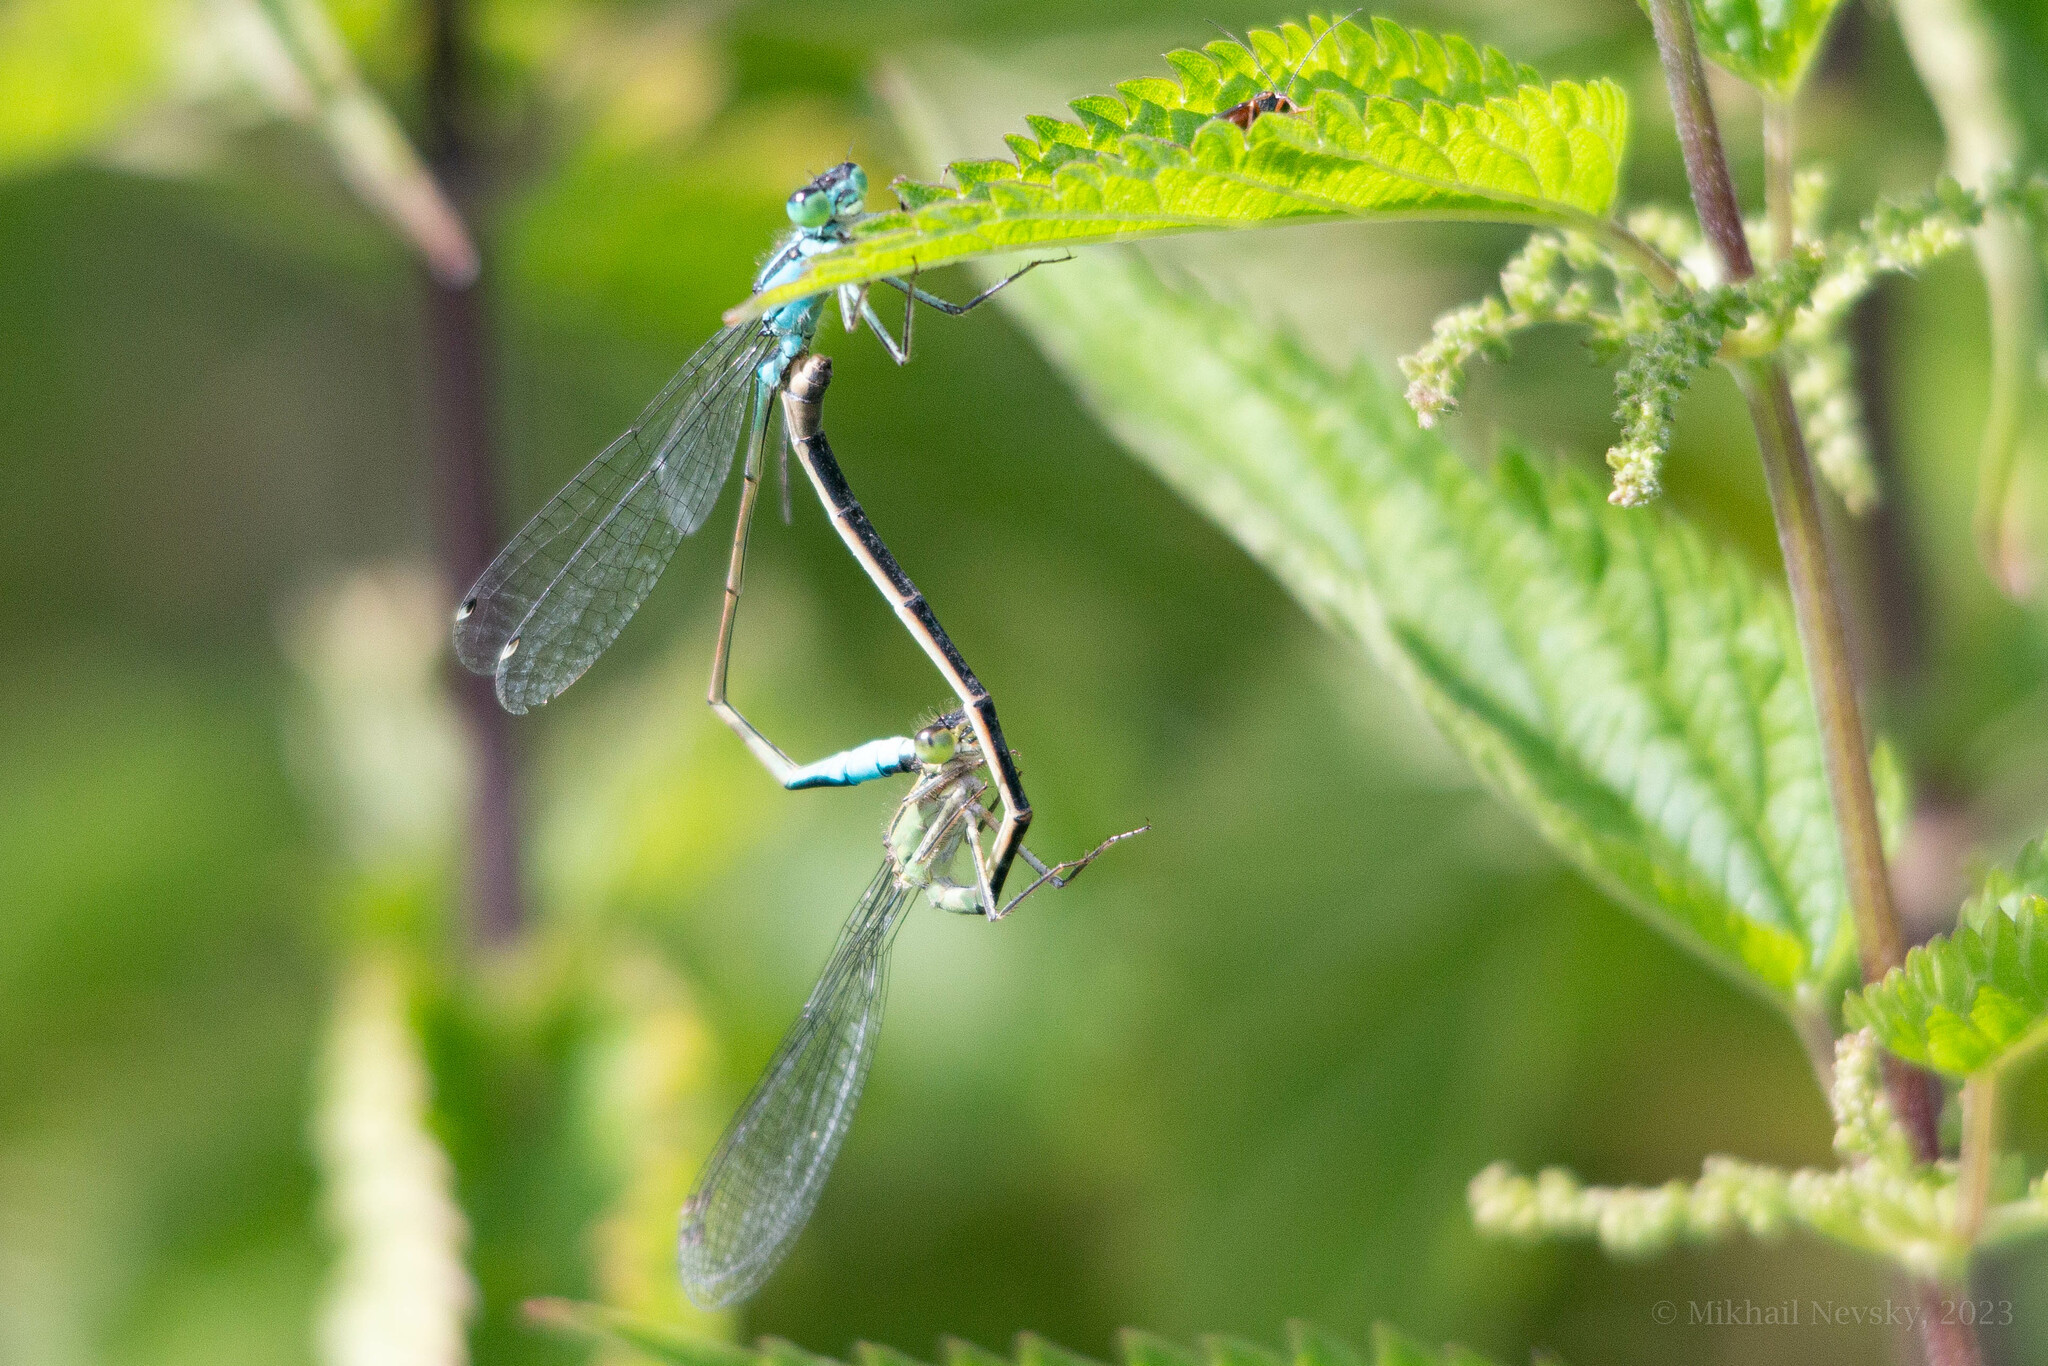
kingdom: Animalia
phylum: Arthropoda
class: Insecta
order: Odonata
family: Coenagrionidae
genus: Ischnura
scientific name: Ischnura elegans
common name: Blue-tailed damselfly
